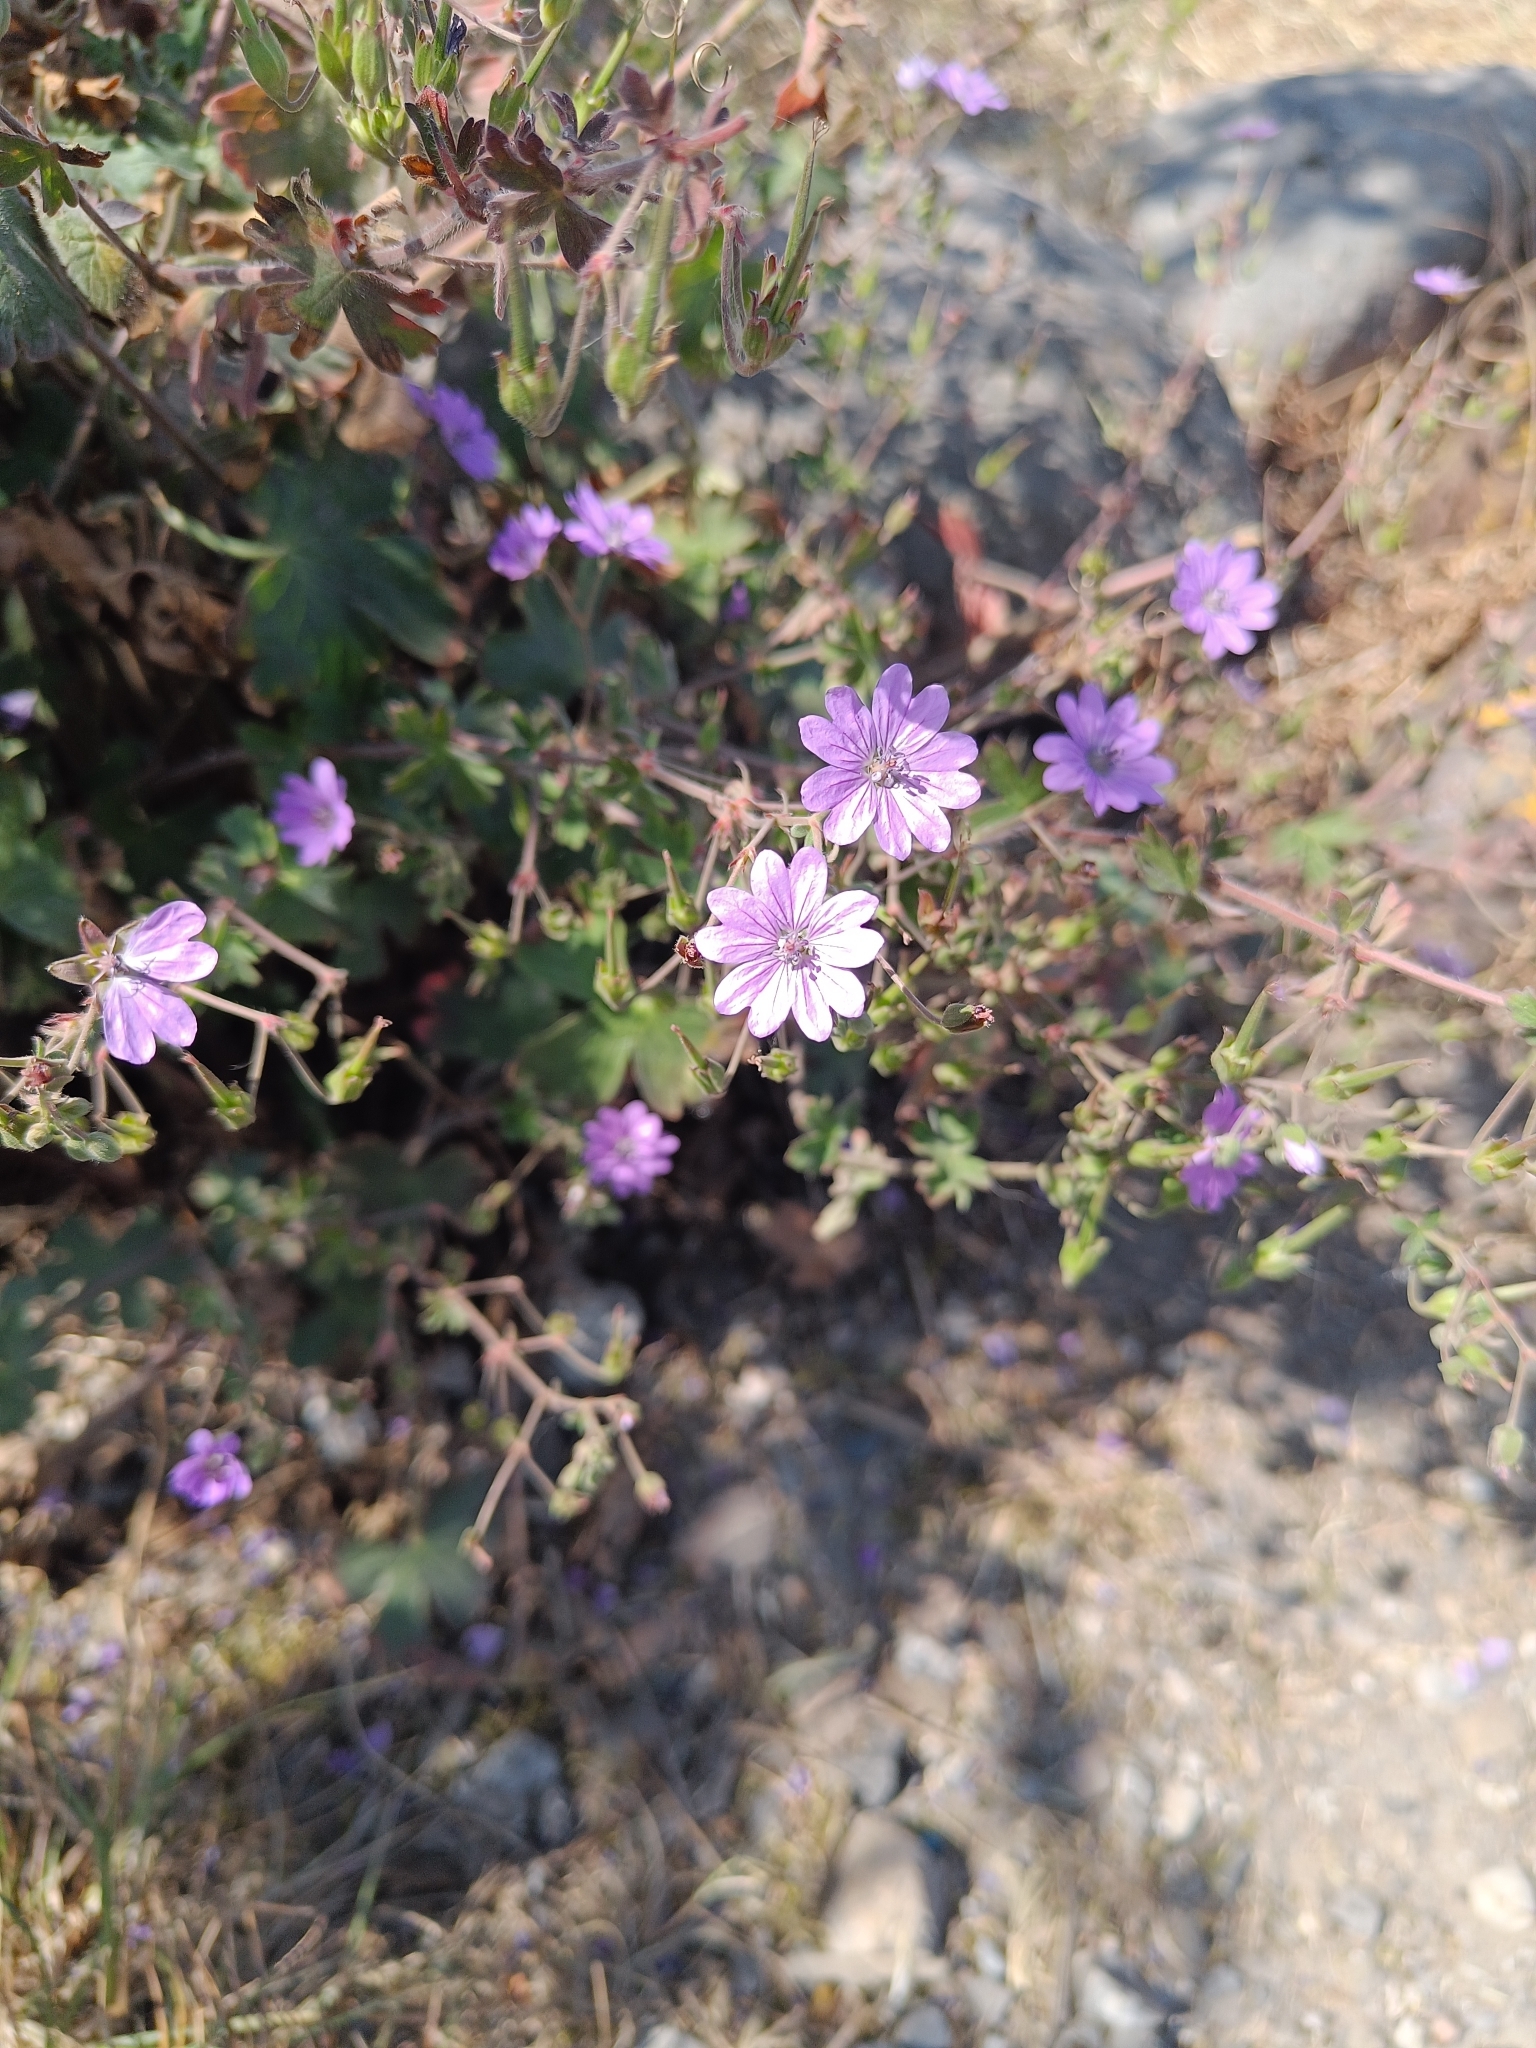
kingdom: Plantae
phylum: Tracheophyta
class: Magnoliopsida
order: Geraniales
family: Geraniaceae
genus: Geranium
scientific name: Geranium pyrenaicum
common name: Hedgerow crane's-bill
